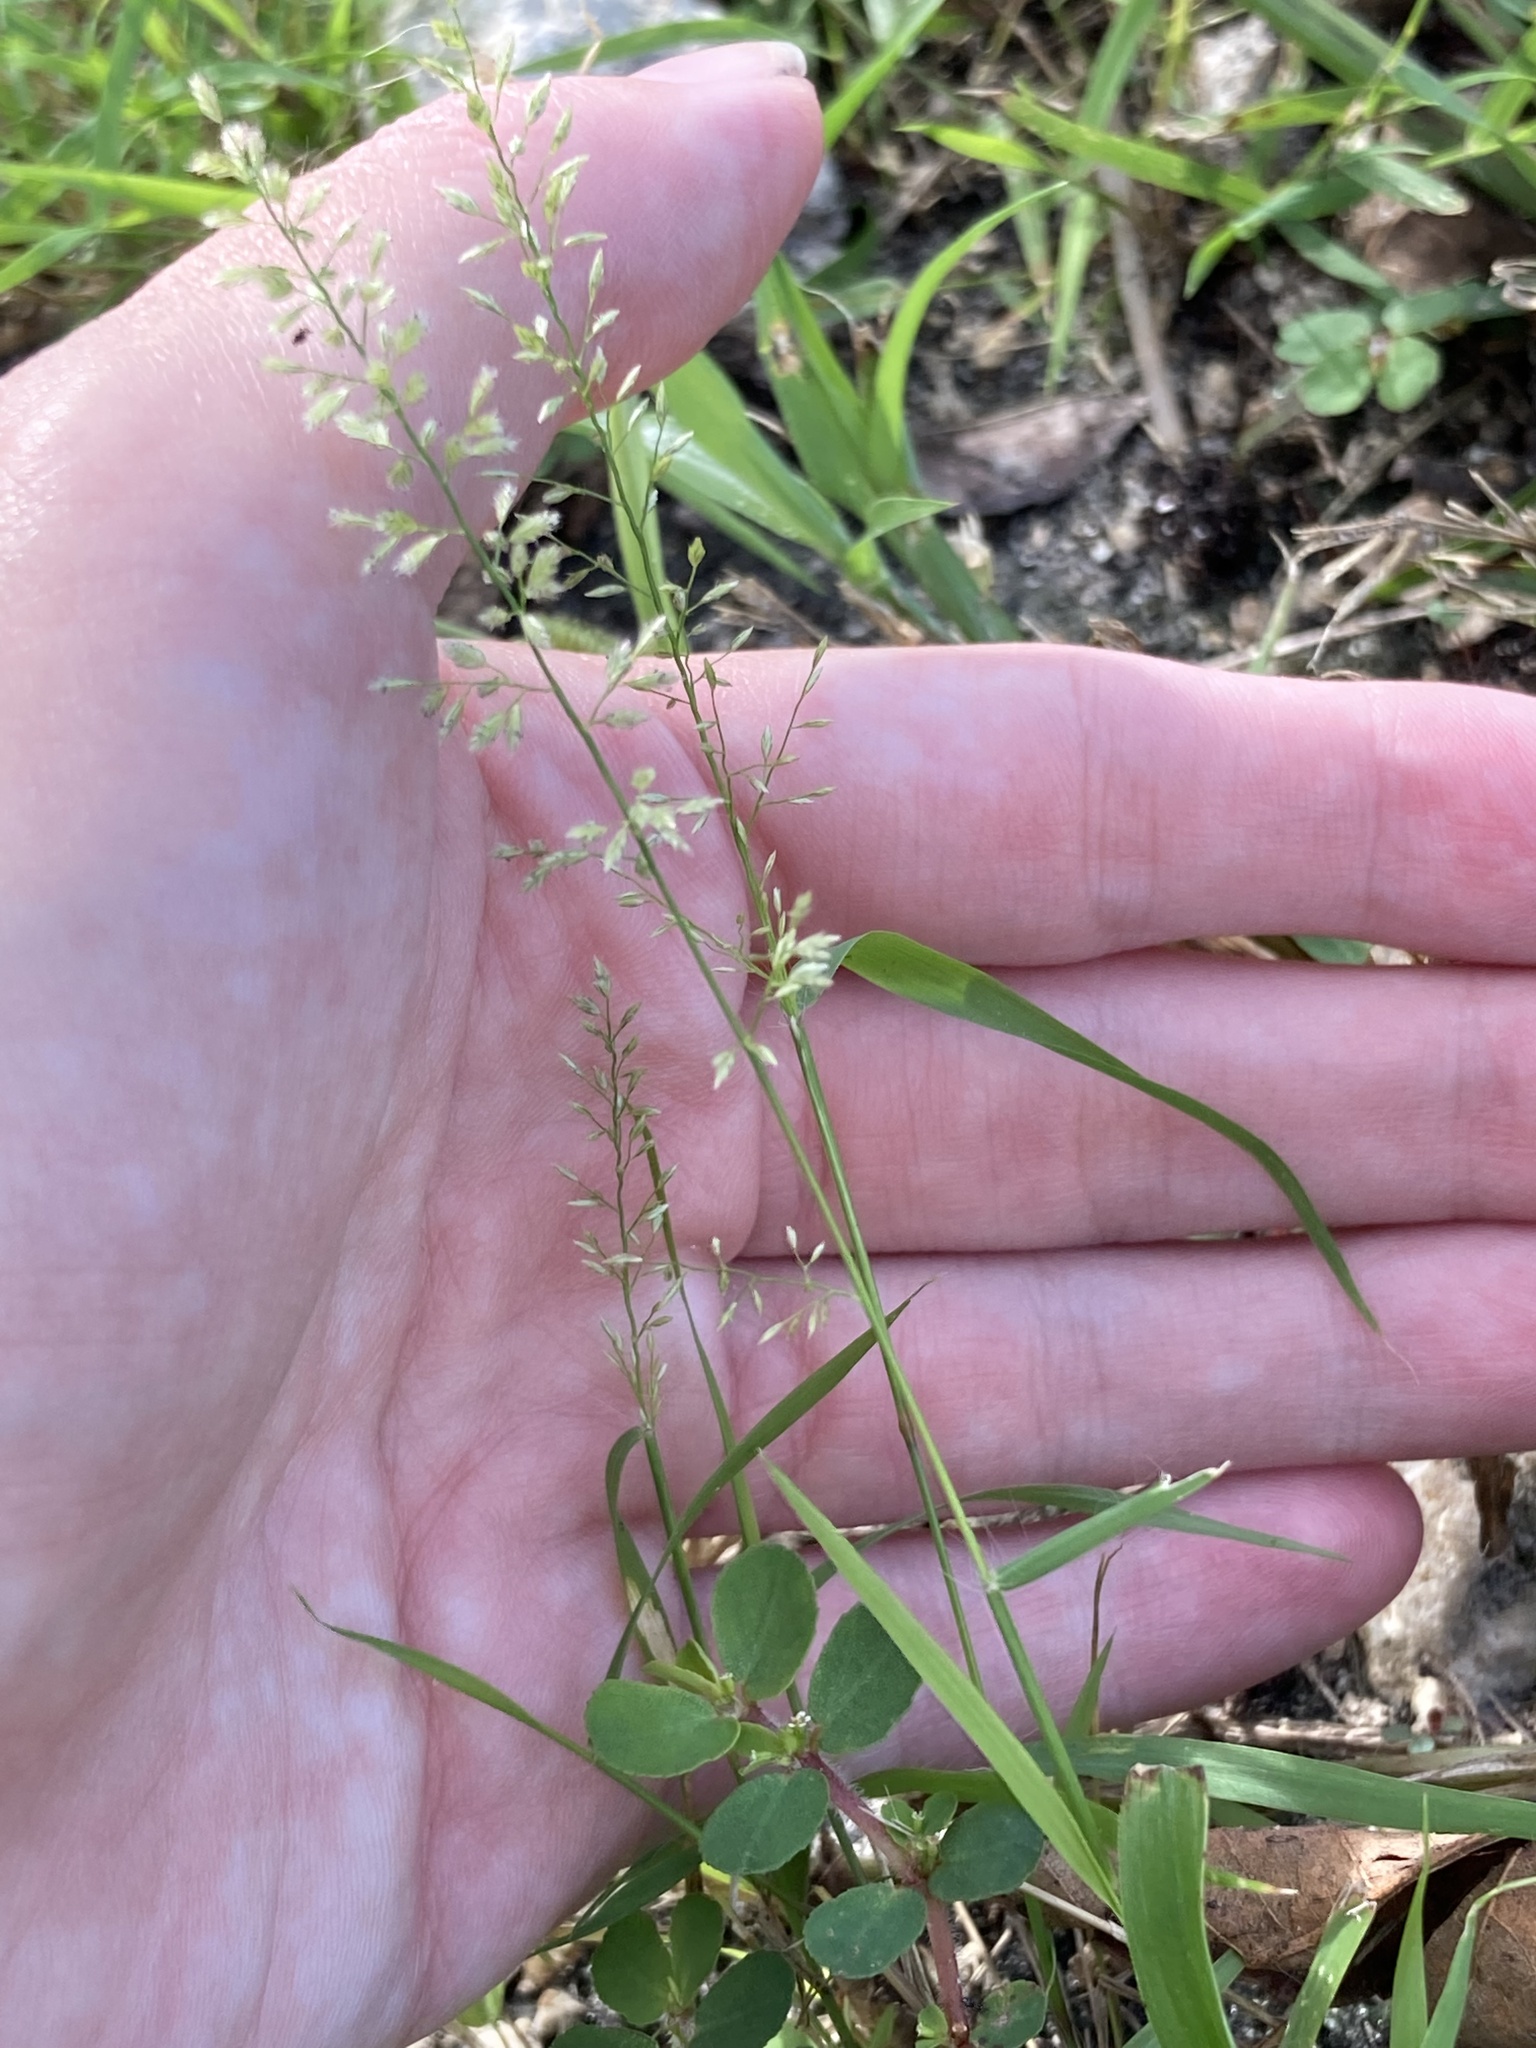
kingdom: Plantae
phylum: Tracheophyta
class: Liliopsida
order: Poales
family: Poaceae
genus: Eragrostis
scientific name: Eragrostis tenella
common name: Japanese lovegrass
